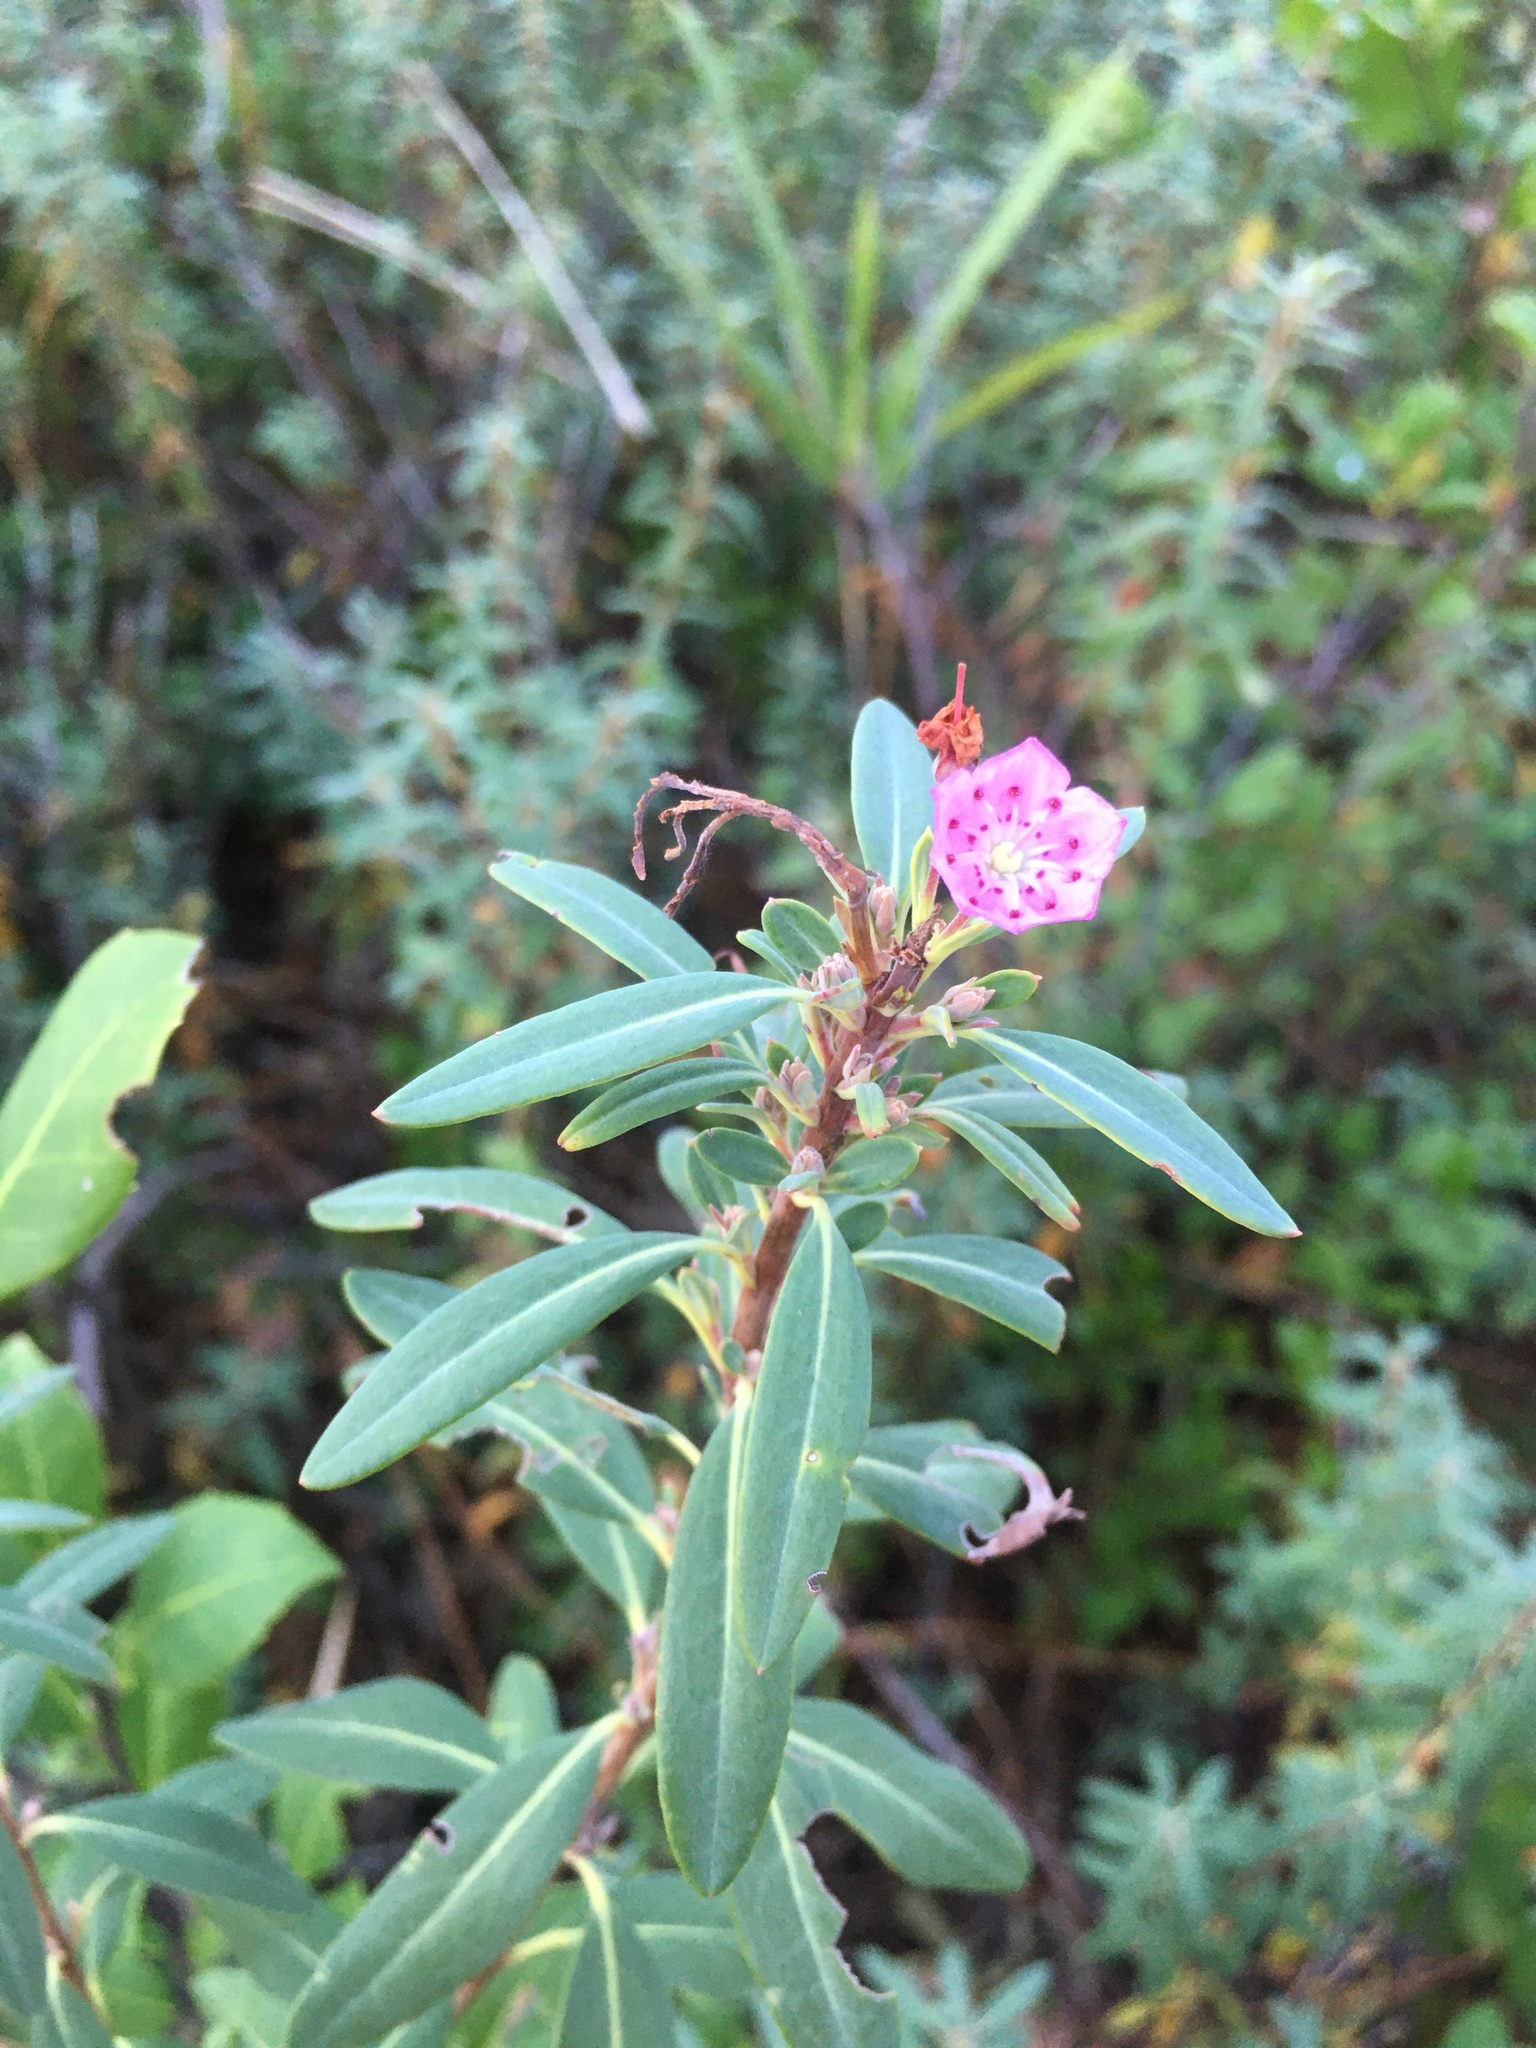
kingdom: Plantae
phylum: Tracheophyta
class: Magnoliopsida
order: Ericales
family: Ericaceae
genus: Kalmia
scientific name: Kalmia angustifolia
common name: Sheep-laurel
